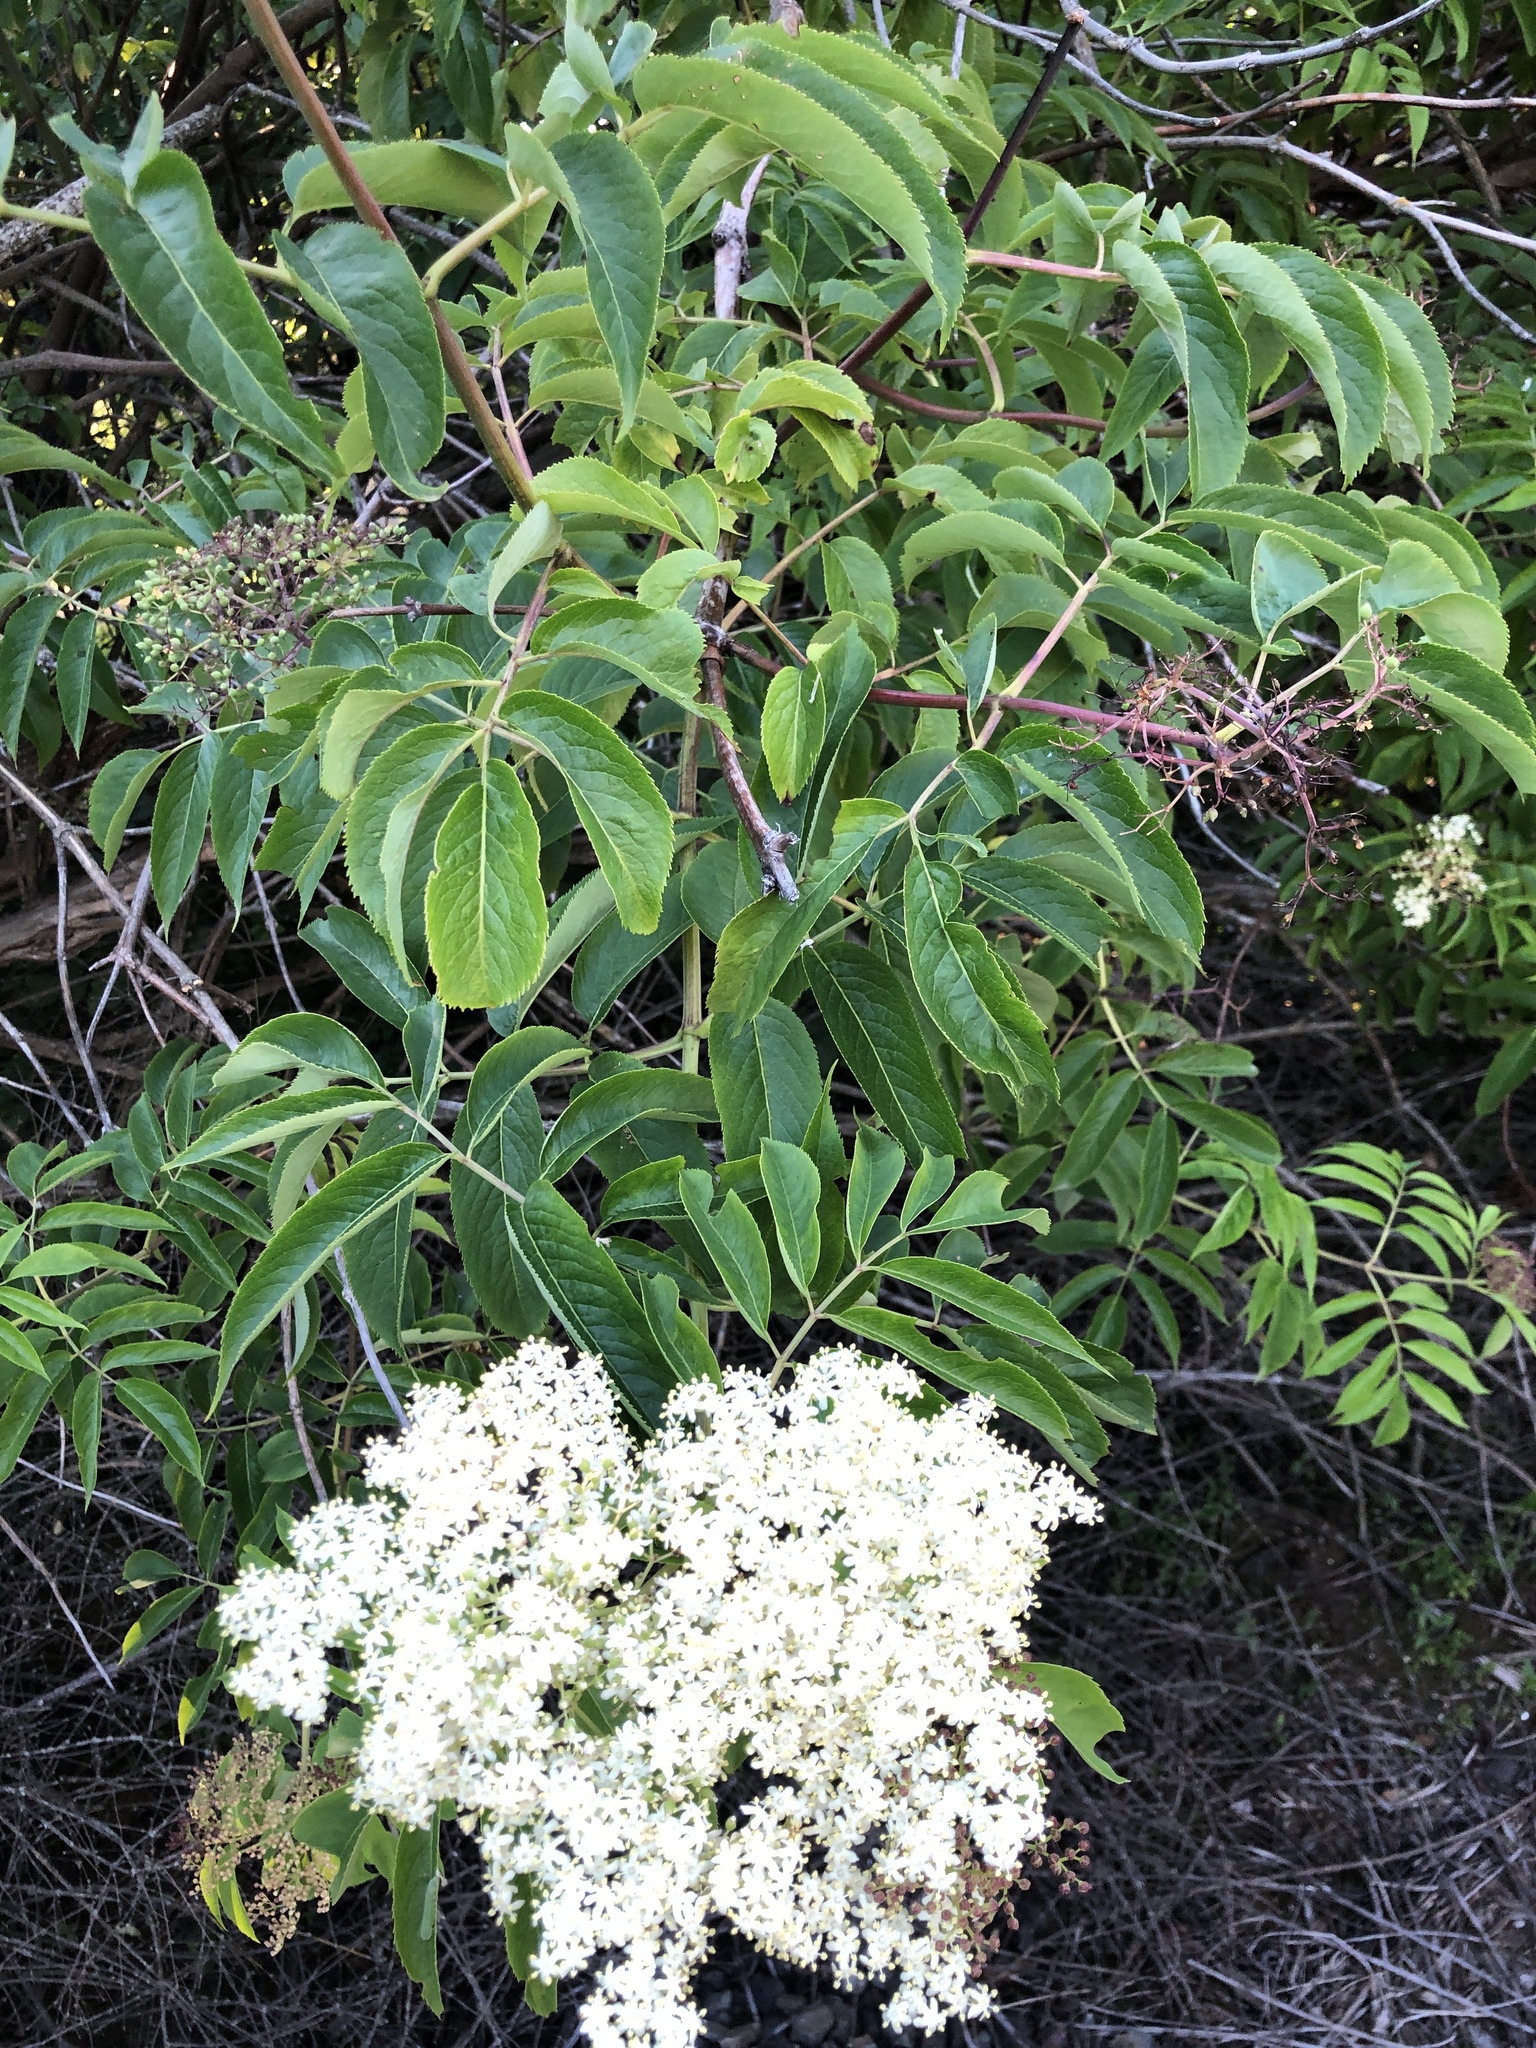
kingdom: Plantae
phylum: Tracheophyta
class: Magnoliopsida
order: Dipsacales
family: Viburnaceae
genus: Sambucus
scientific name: Sambucus cerulea
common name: Blue elder
